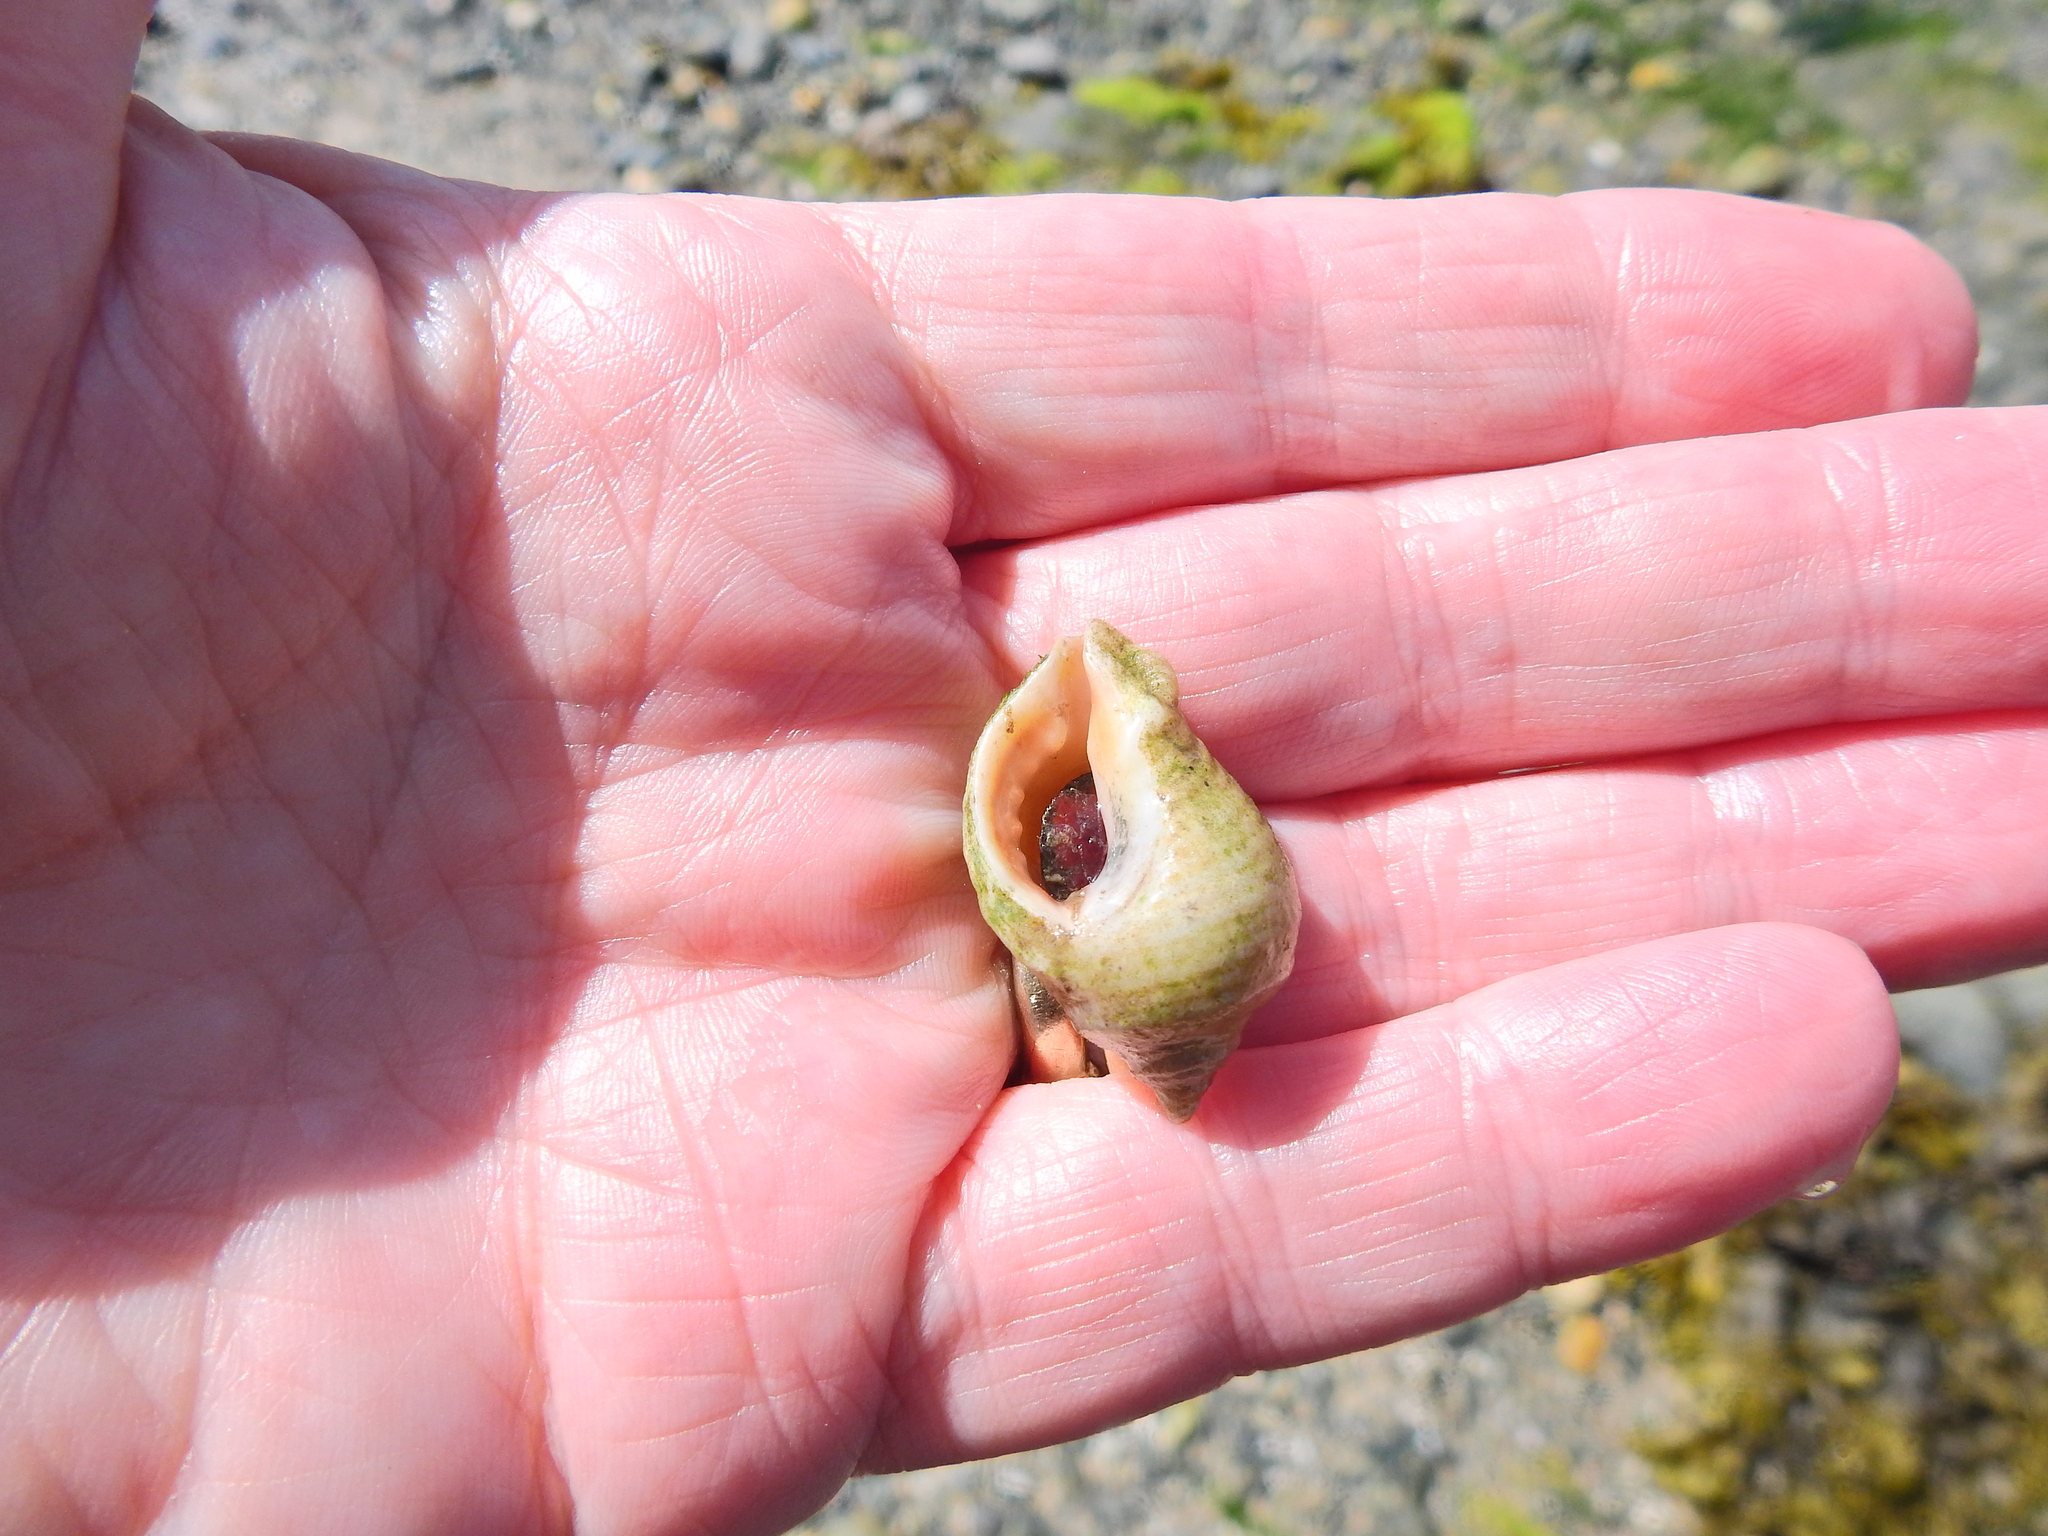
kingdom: Animalia
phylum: Mollusca
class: Gastropoda
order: Neogastropoda
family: Muricidae
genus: Nucella
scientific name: Nucella lapillus
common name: Dog whelk
